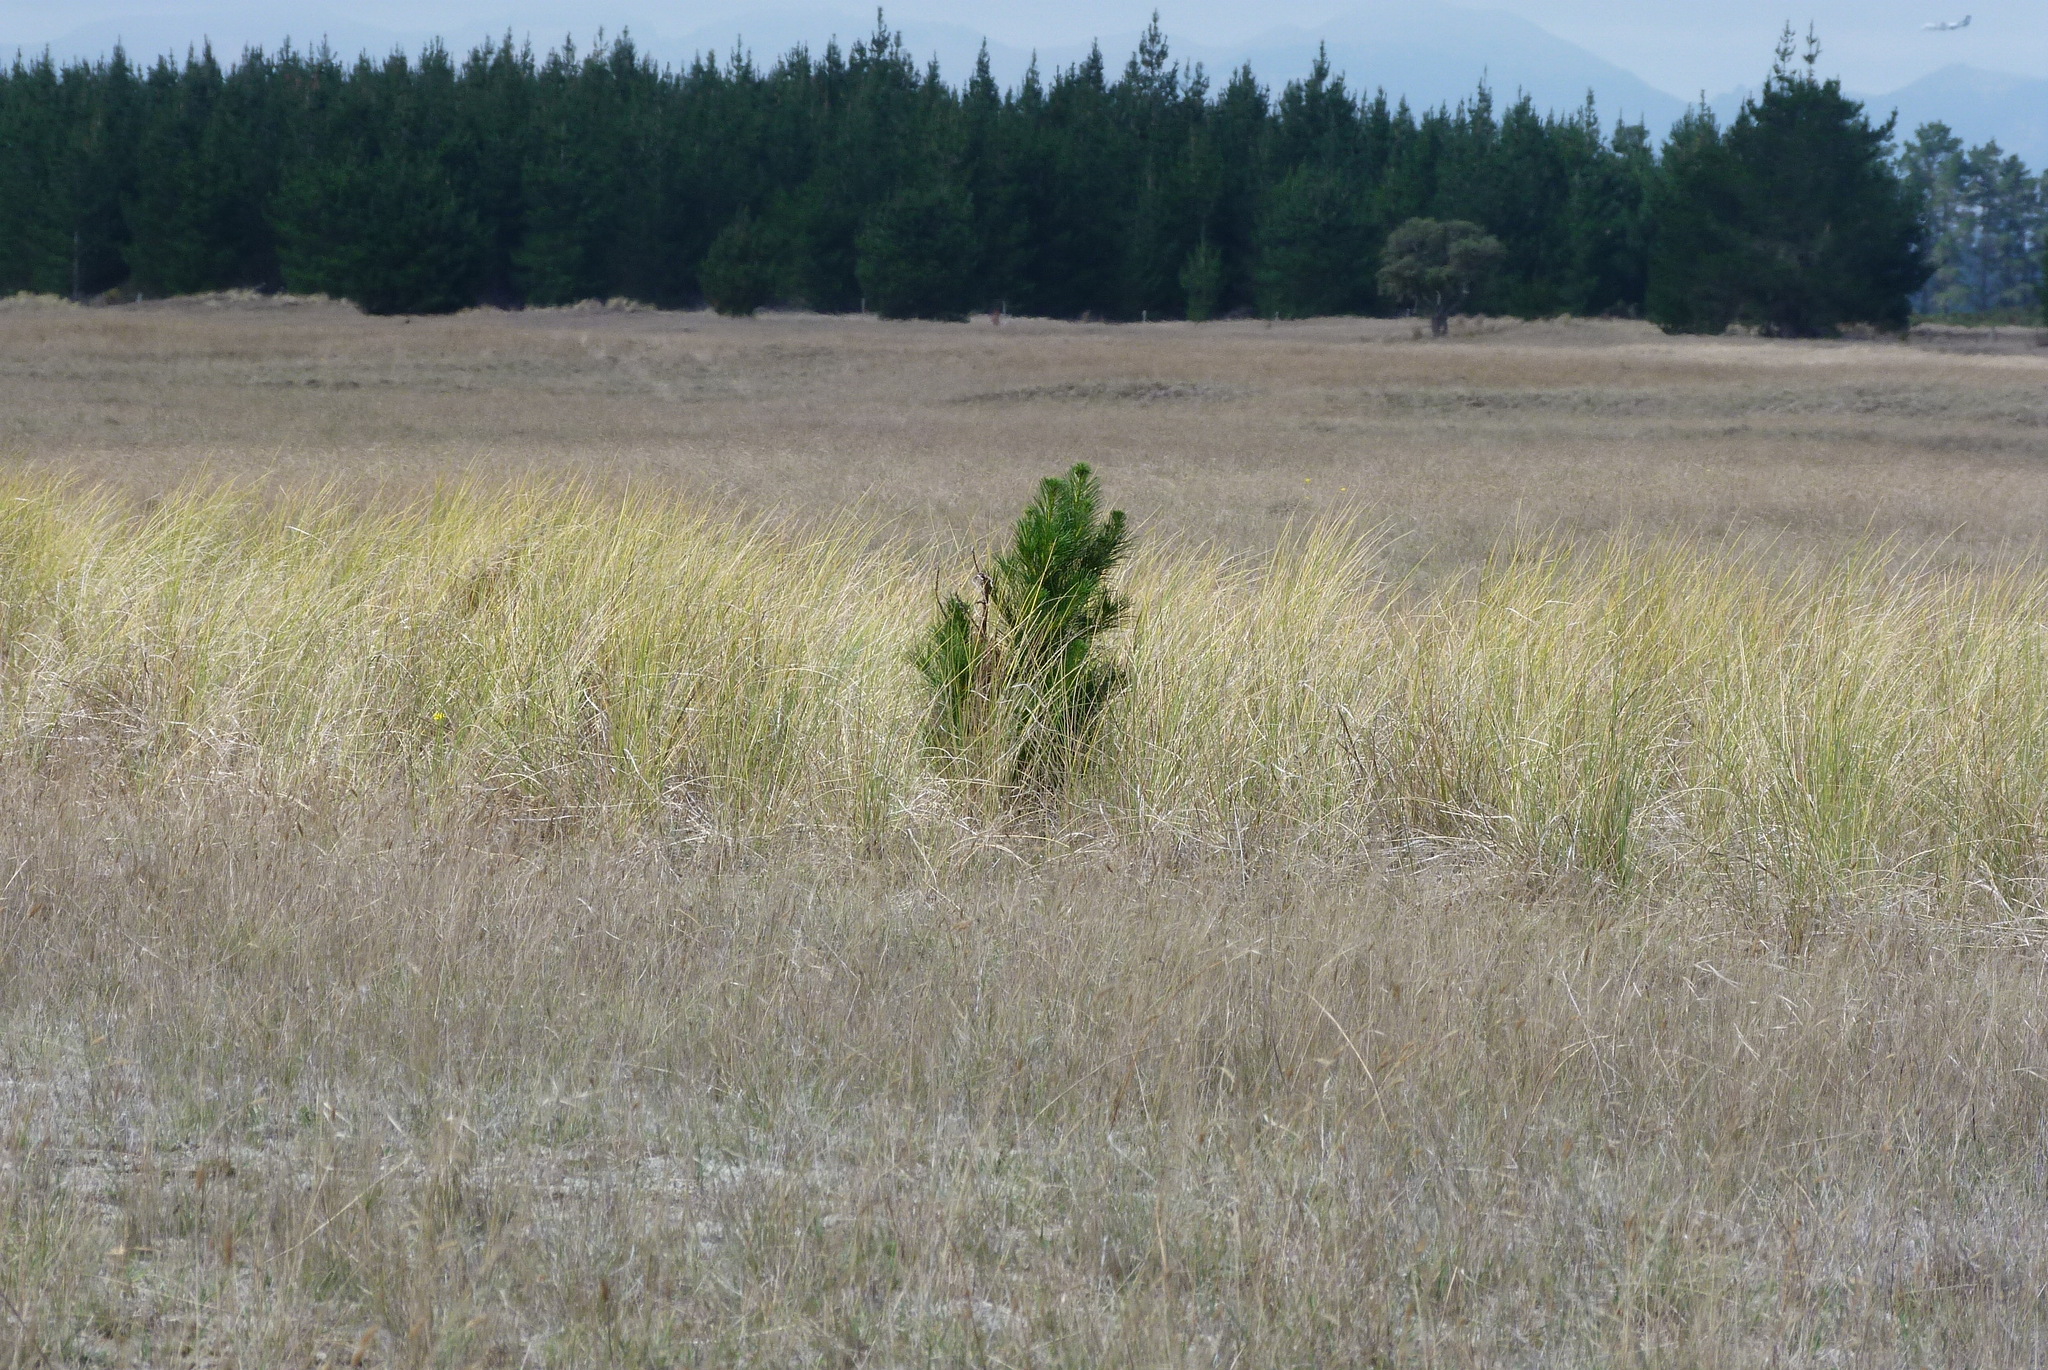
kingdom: Plantae
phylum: Tracheophyta
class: Pinopsida
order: Pinales
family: Pinaceae
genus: Pinus
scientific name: Pinus radiata
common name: Monterey pine
